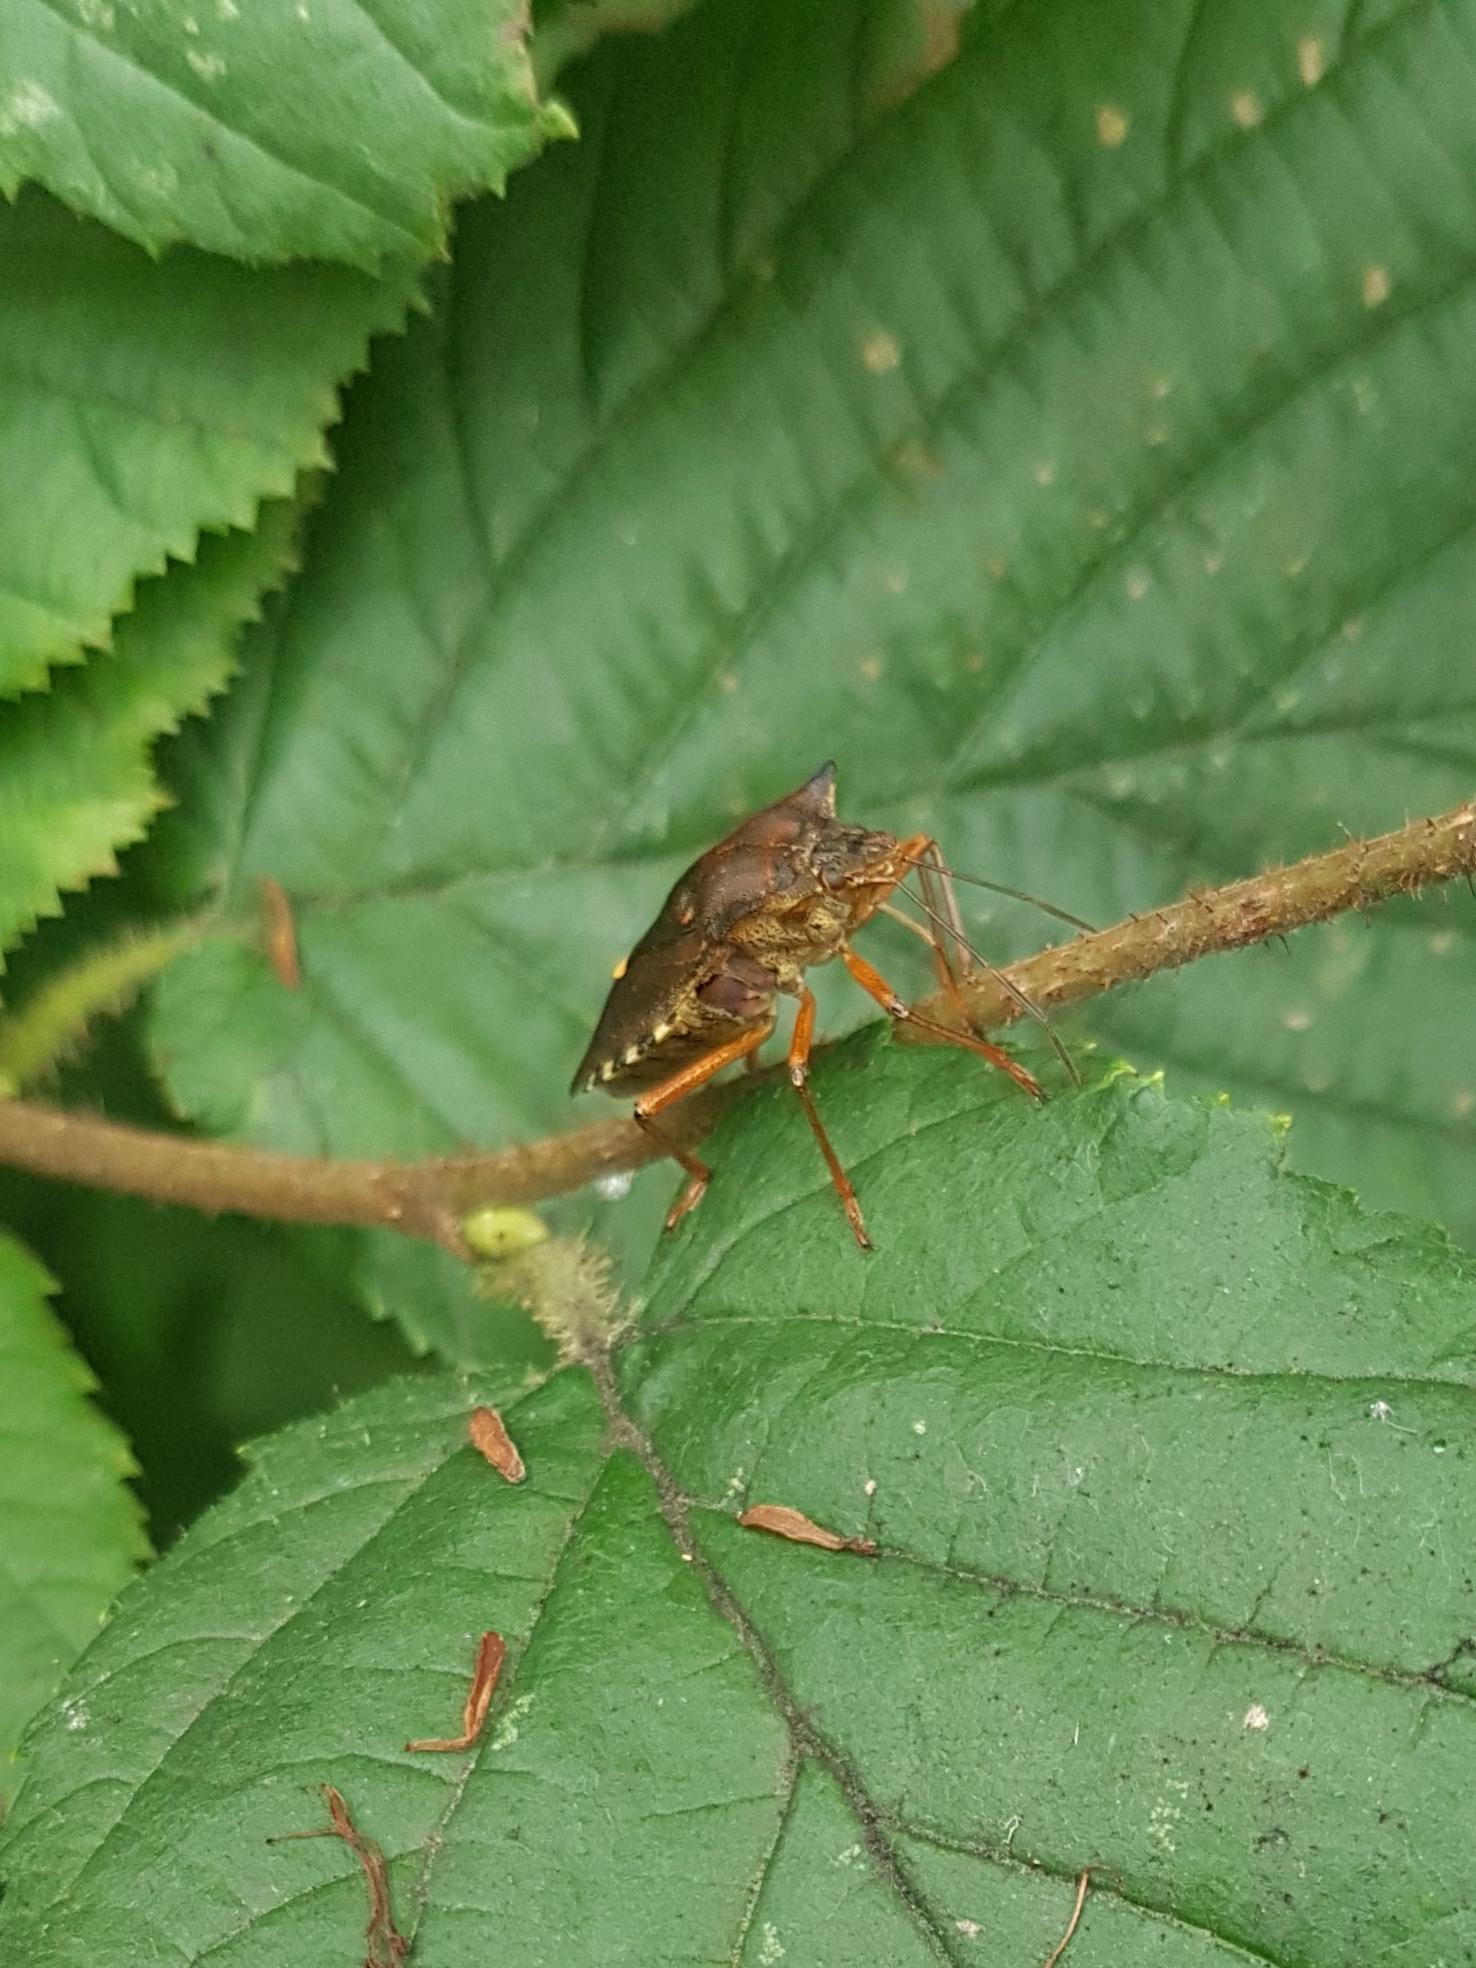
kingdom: Animalia
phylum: Arthropoda
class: Insecta
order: Hemiptera
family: Pentatomidae
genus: Pentatoma
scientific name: Pentatoma rufipes
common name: Forest bug
